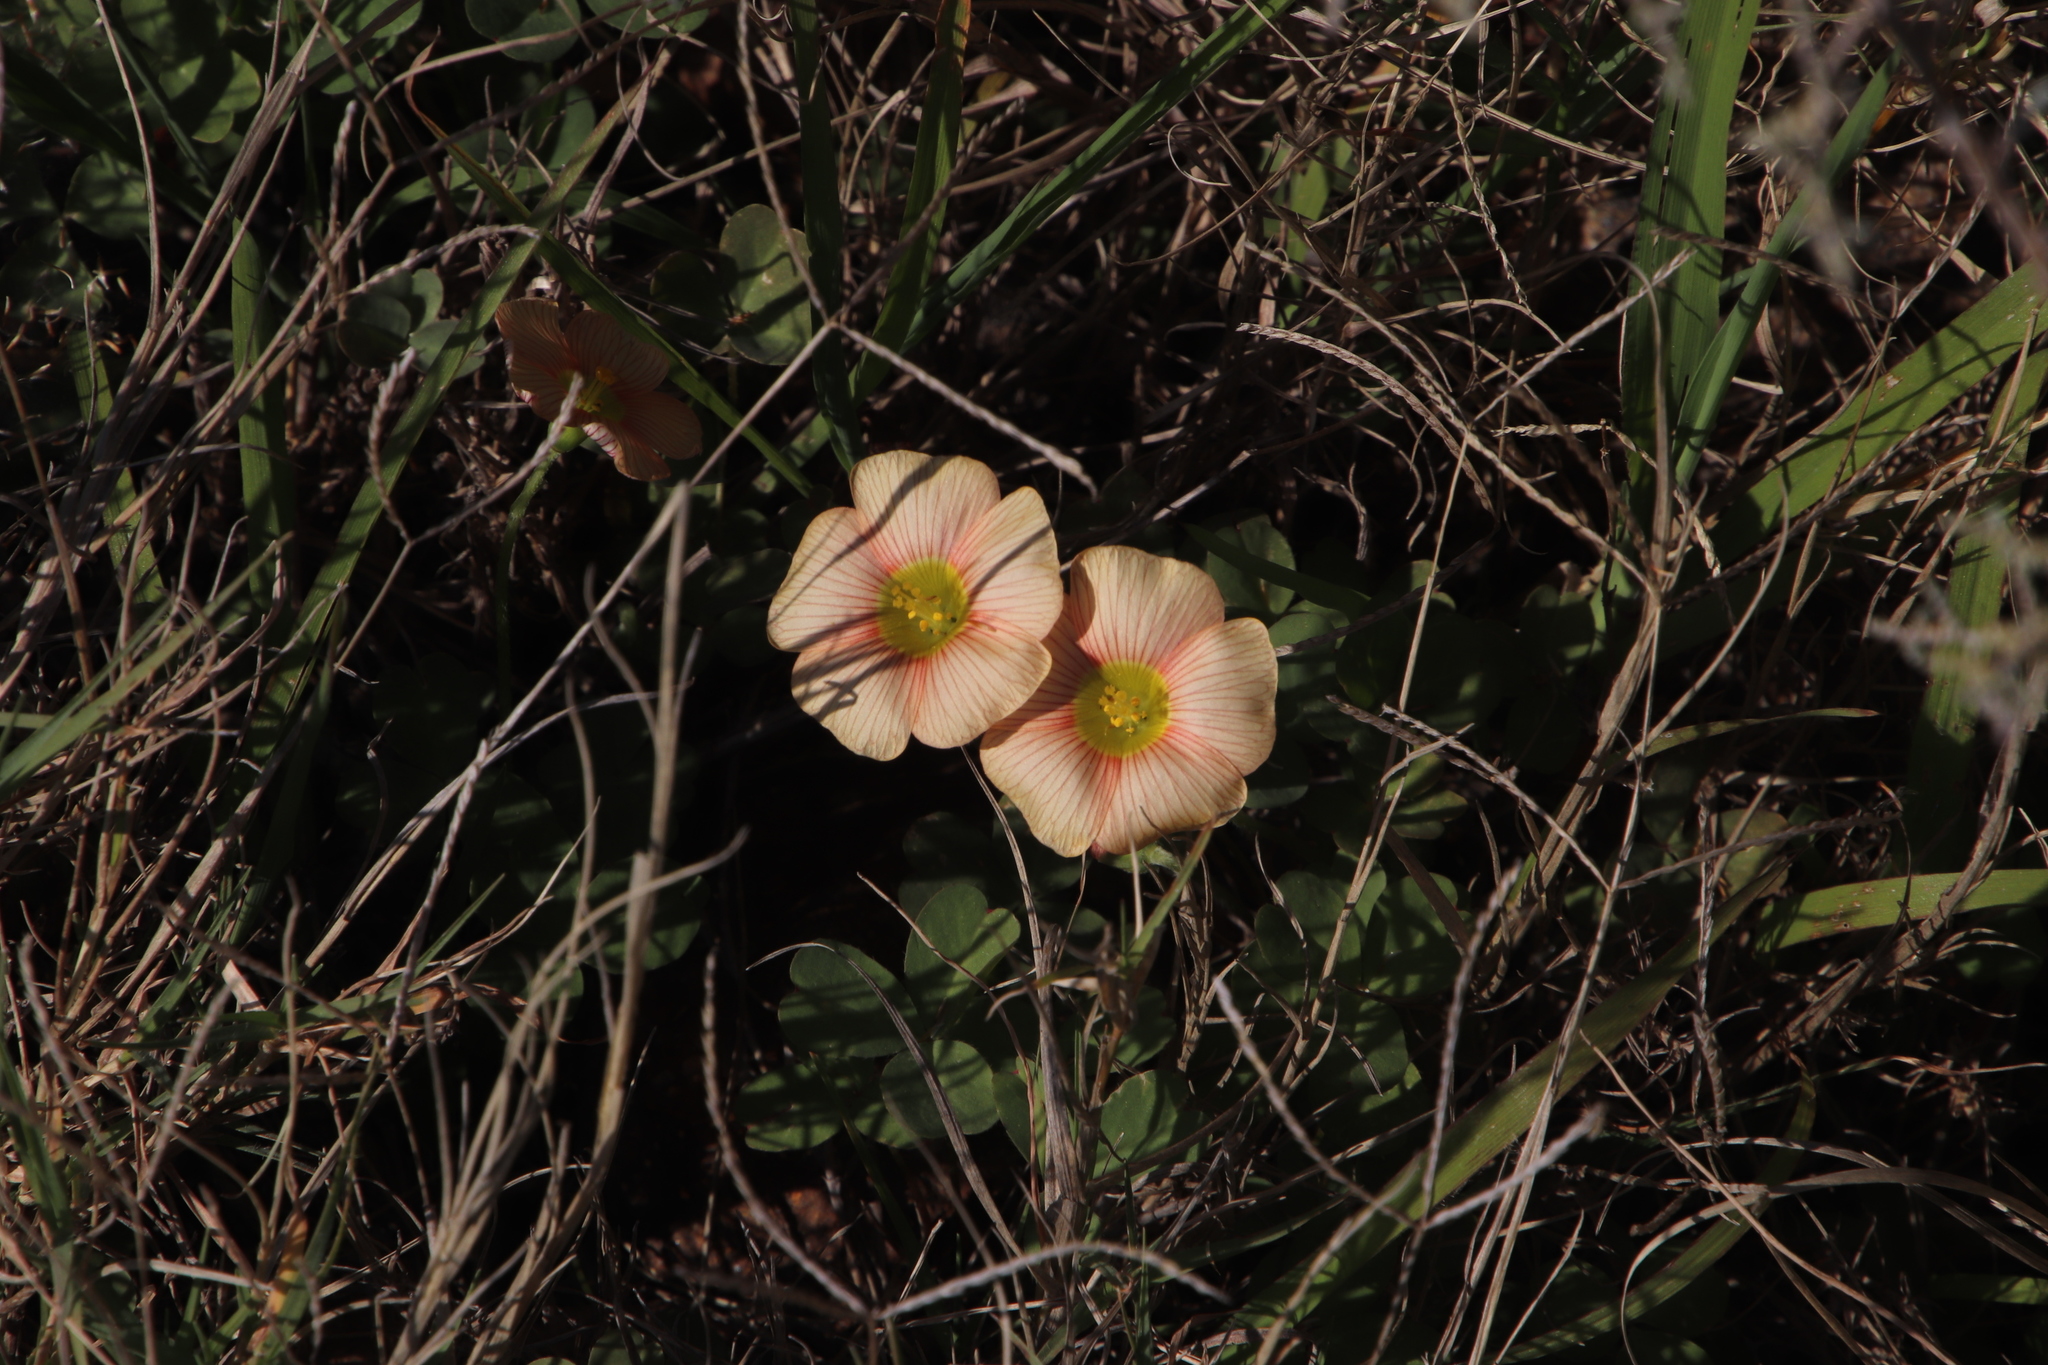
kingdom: Plantae
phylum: Tracheophyta
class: Magnoliopsida
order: Oxalidales
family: Oxalidaceae
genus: Oxalis
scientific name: Oxalis obtusa
